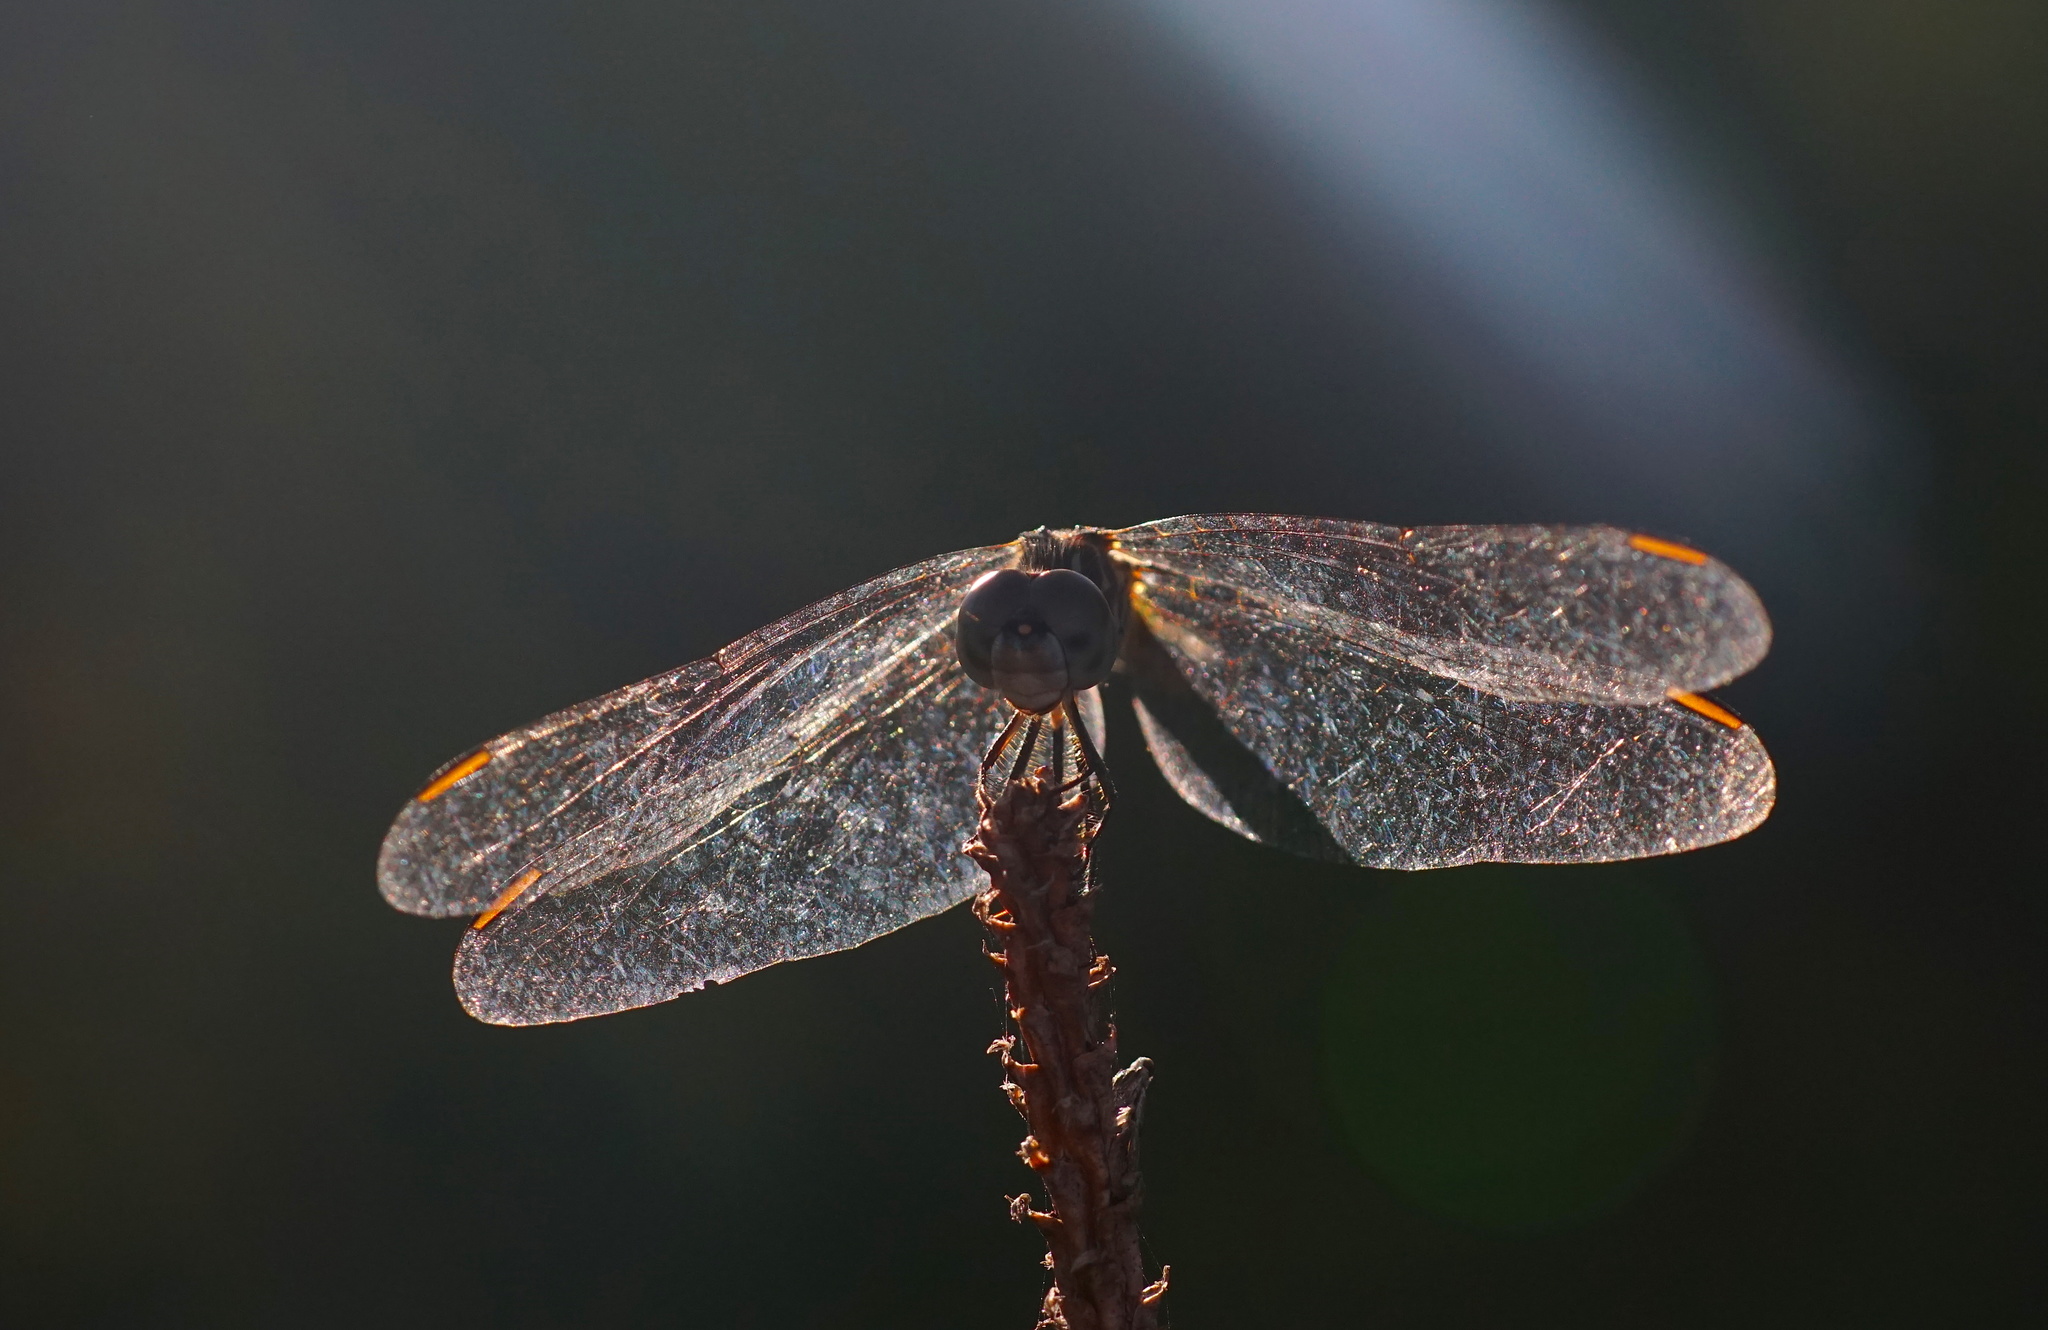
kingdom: Animalia
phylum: Arthropoda
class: Insecta
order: Odonata
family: Libellulidae
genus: Pachydiplax
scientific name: Pachydiplax longipennis
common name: Blue dasher
